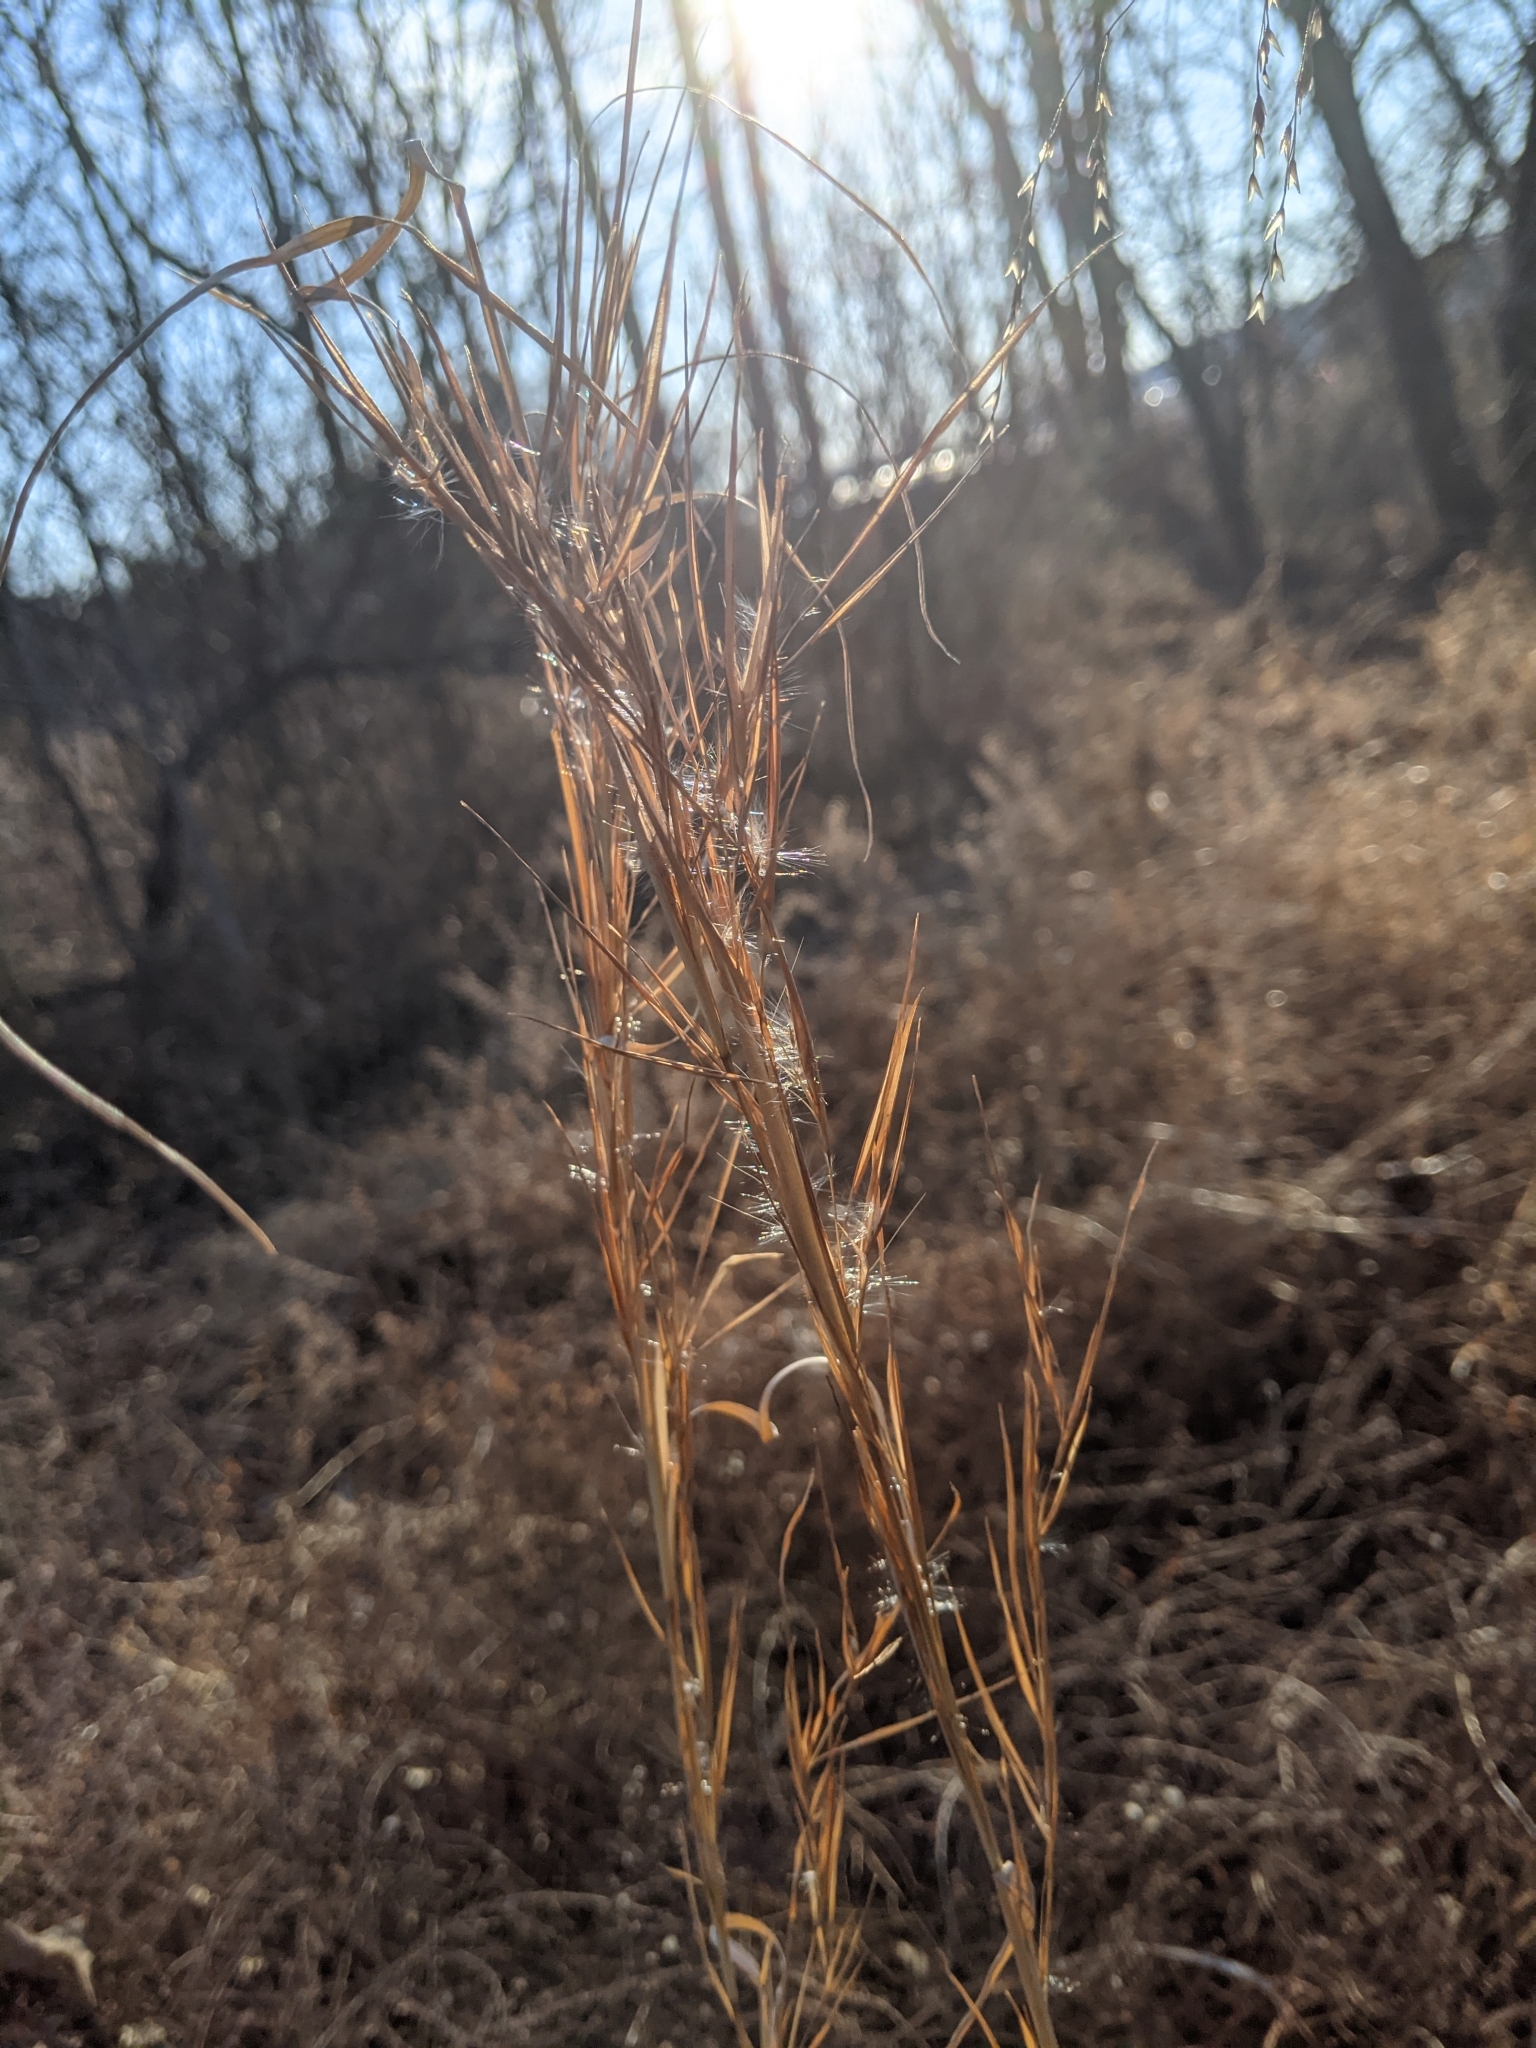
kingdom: Plantae
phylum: Tracheophyta
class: Liliopsida
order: Poales
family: Poaceae
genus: Andropogon
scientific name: Andropogon virginicus
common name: Broomsedge bluestem
